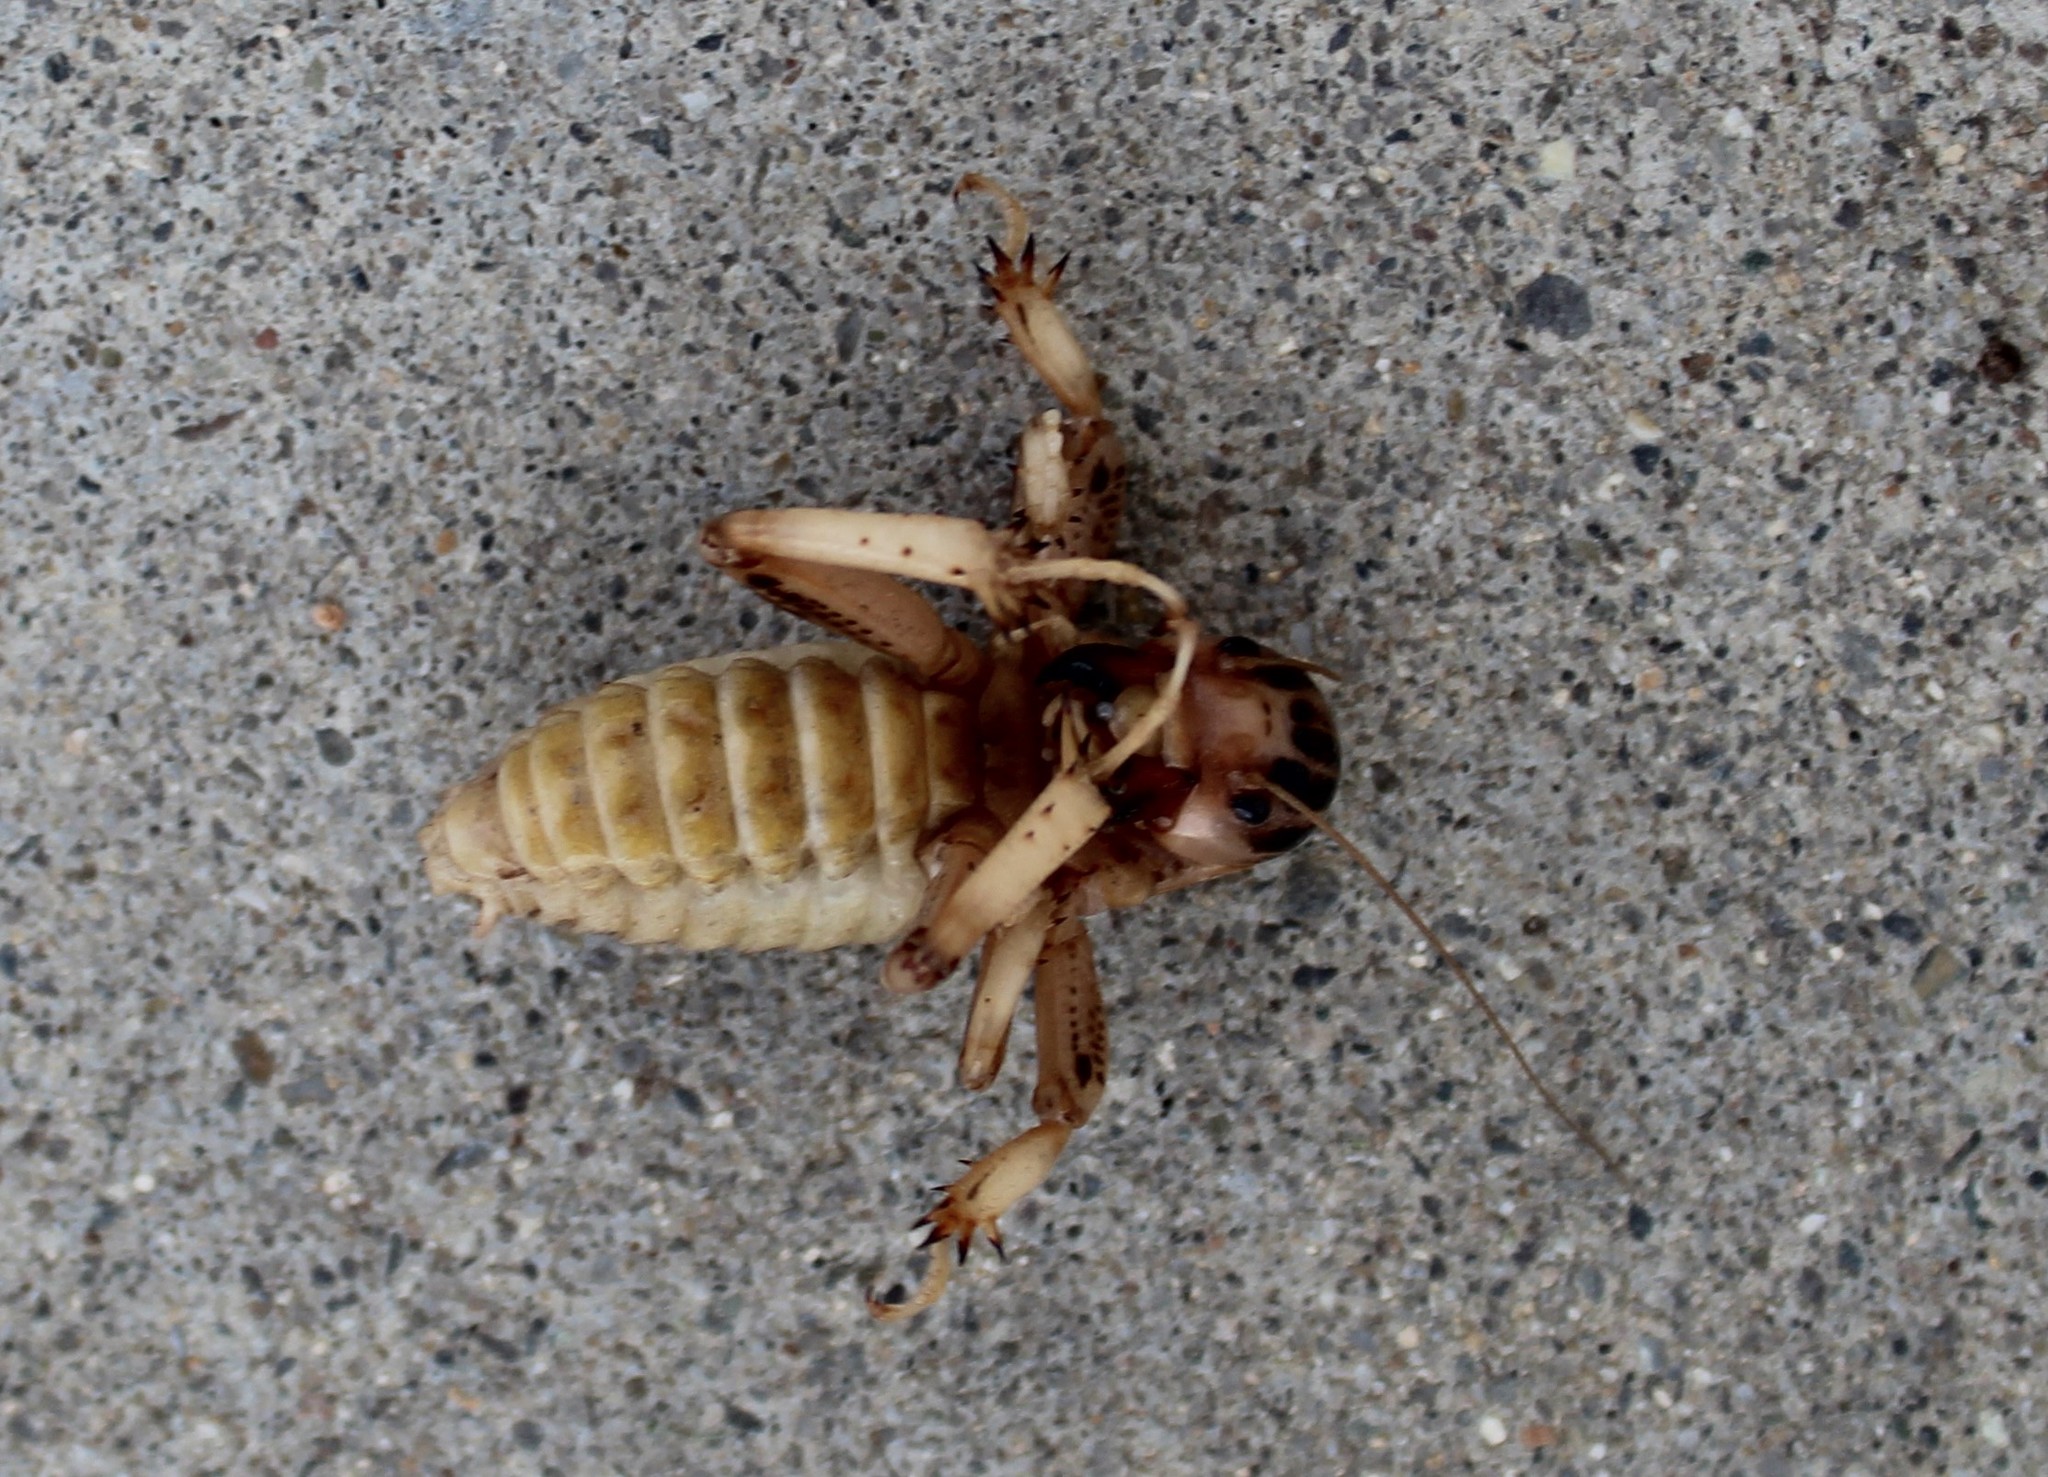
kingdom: Animalia
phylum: Arthropoda
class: Insecta
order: Orthoptera
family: Stenopelmatidae
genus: Ammopelmatus
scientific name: Ammopelmatus pictus
